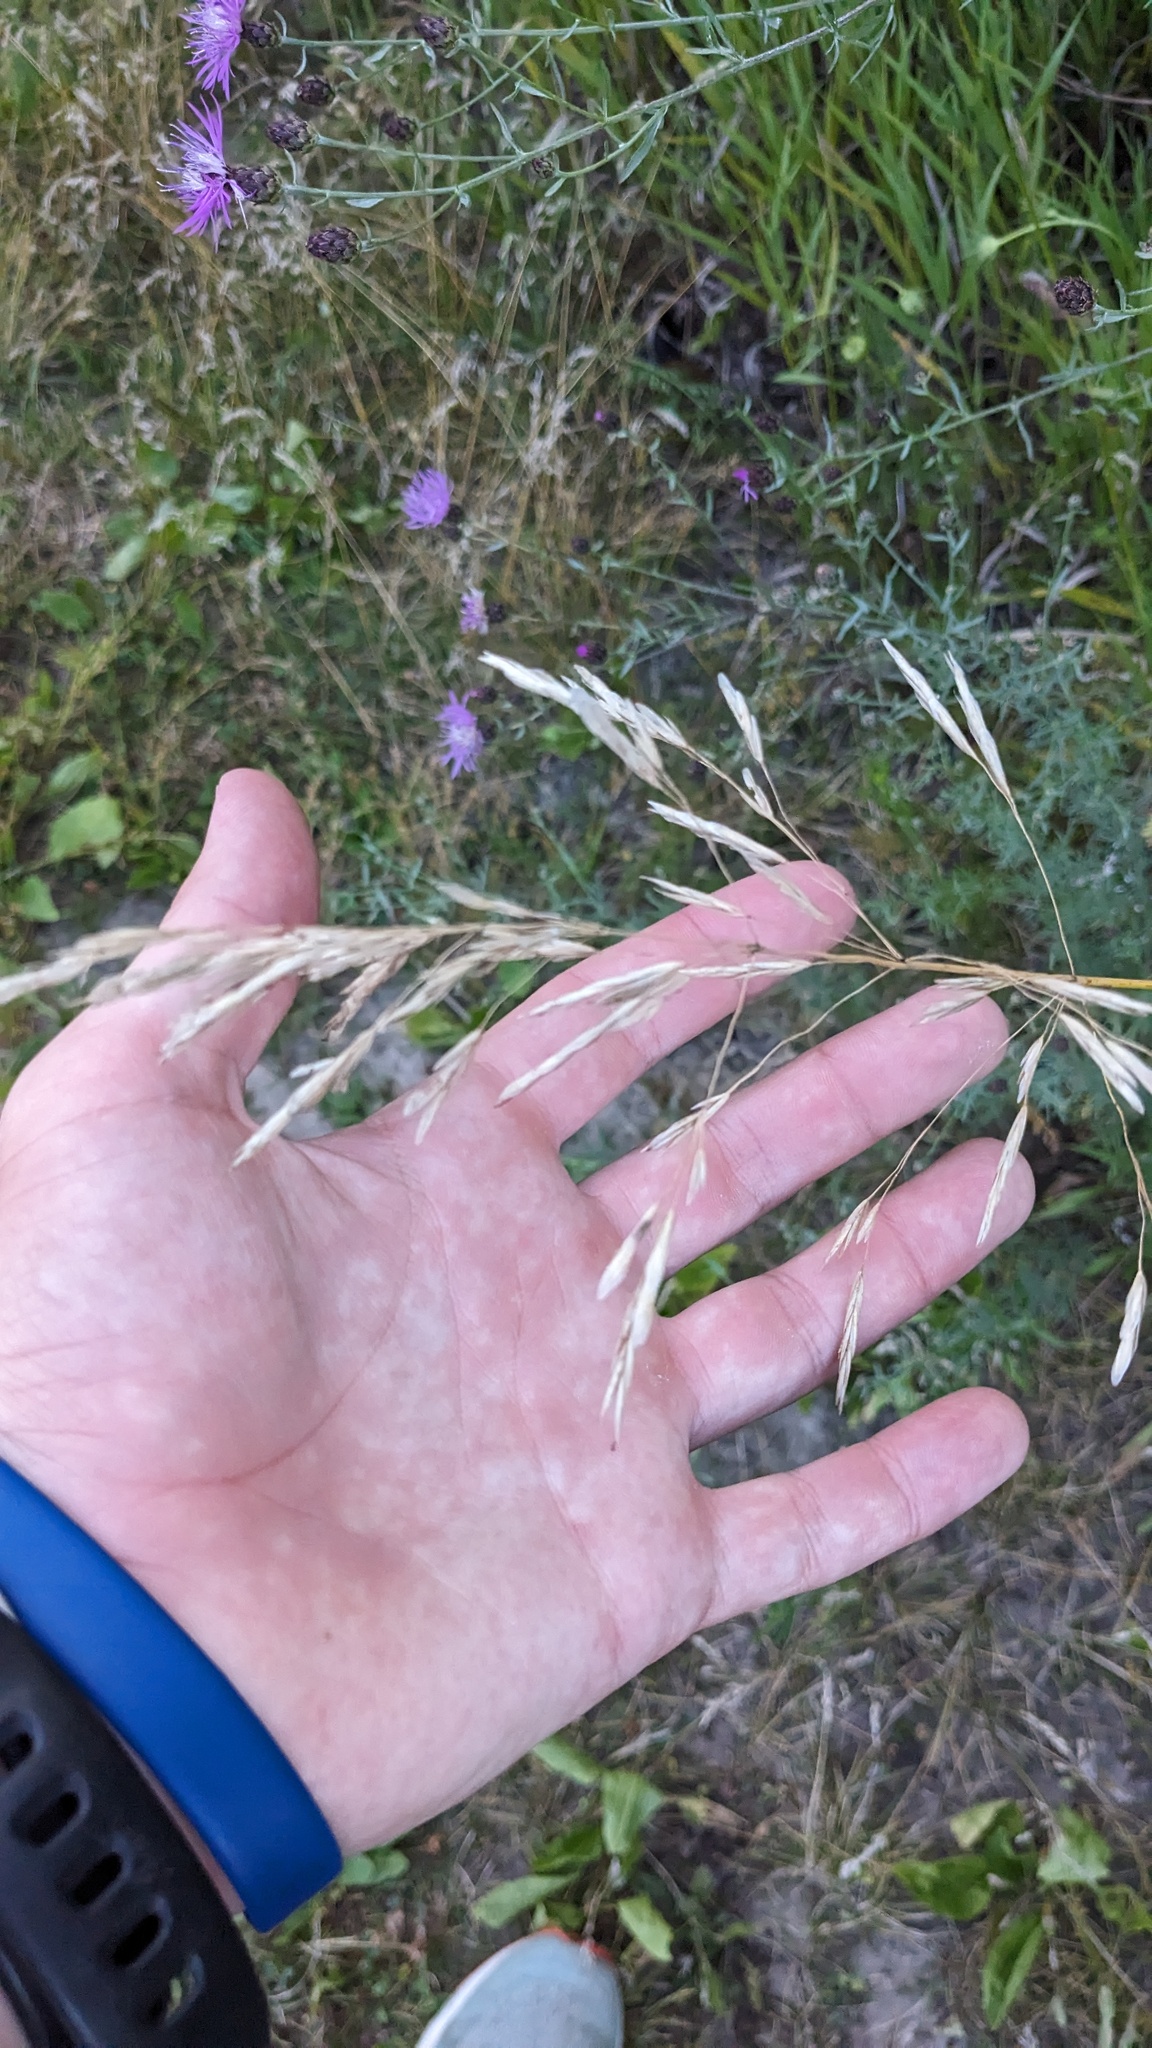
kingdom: Plantae
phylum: Tracheophyta
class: Liliopsida
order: Poales
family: Poaceae
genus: Bromus
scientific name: Bromus inermis
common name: Smooth brome
